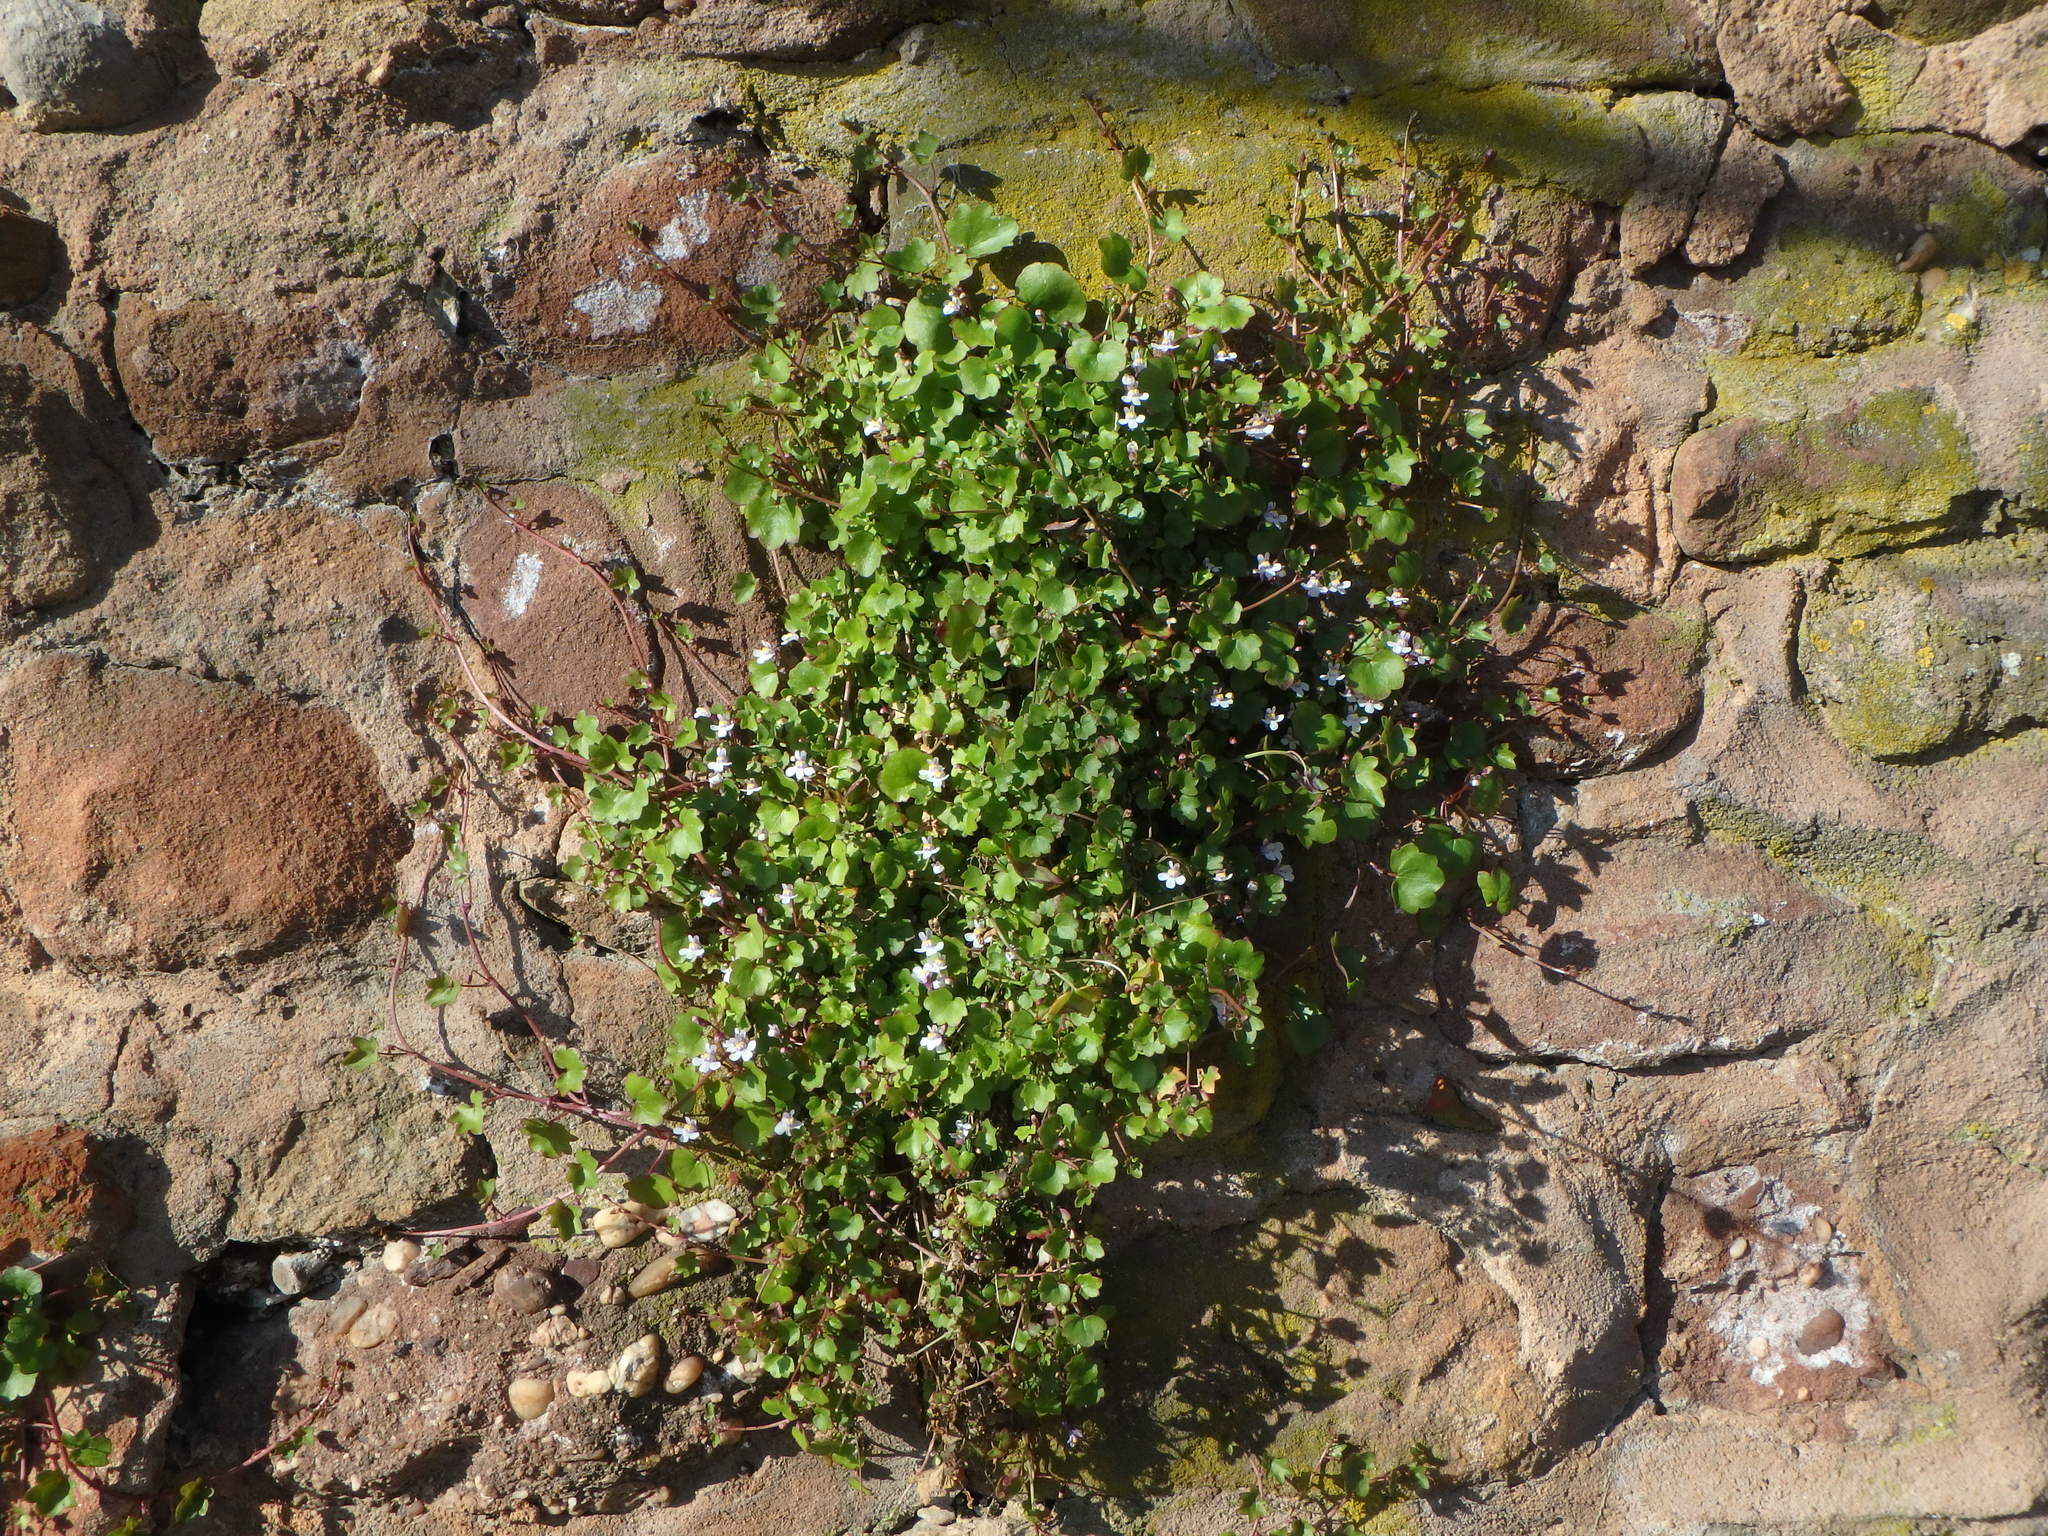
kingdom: Plantae
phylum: Tracheophyta
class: Magnoliopsida
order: Lamiales
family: Plantaginaceae
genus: Cymbalaria
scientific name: Cymbalaria muralis
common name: Ivy-leaved toadflax
